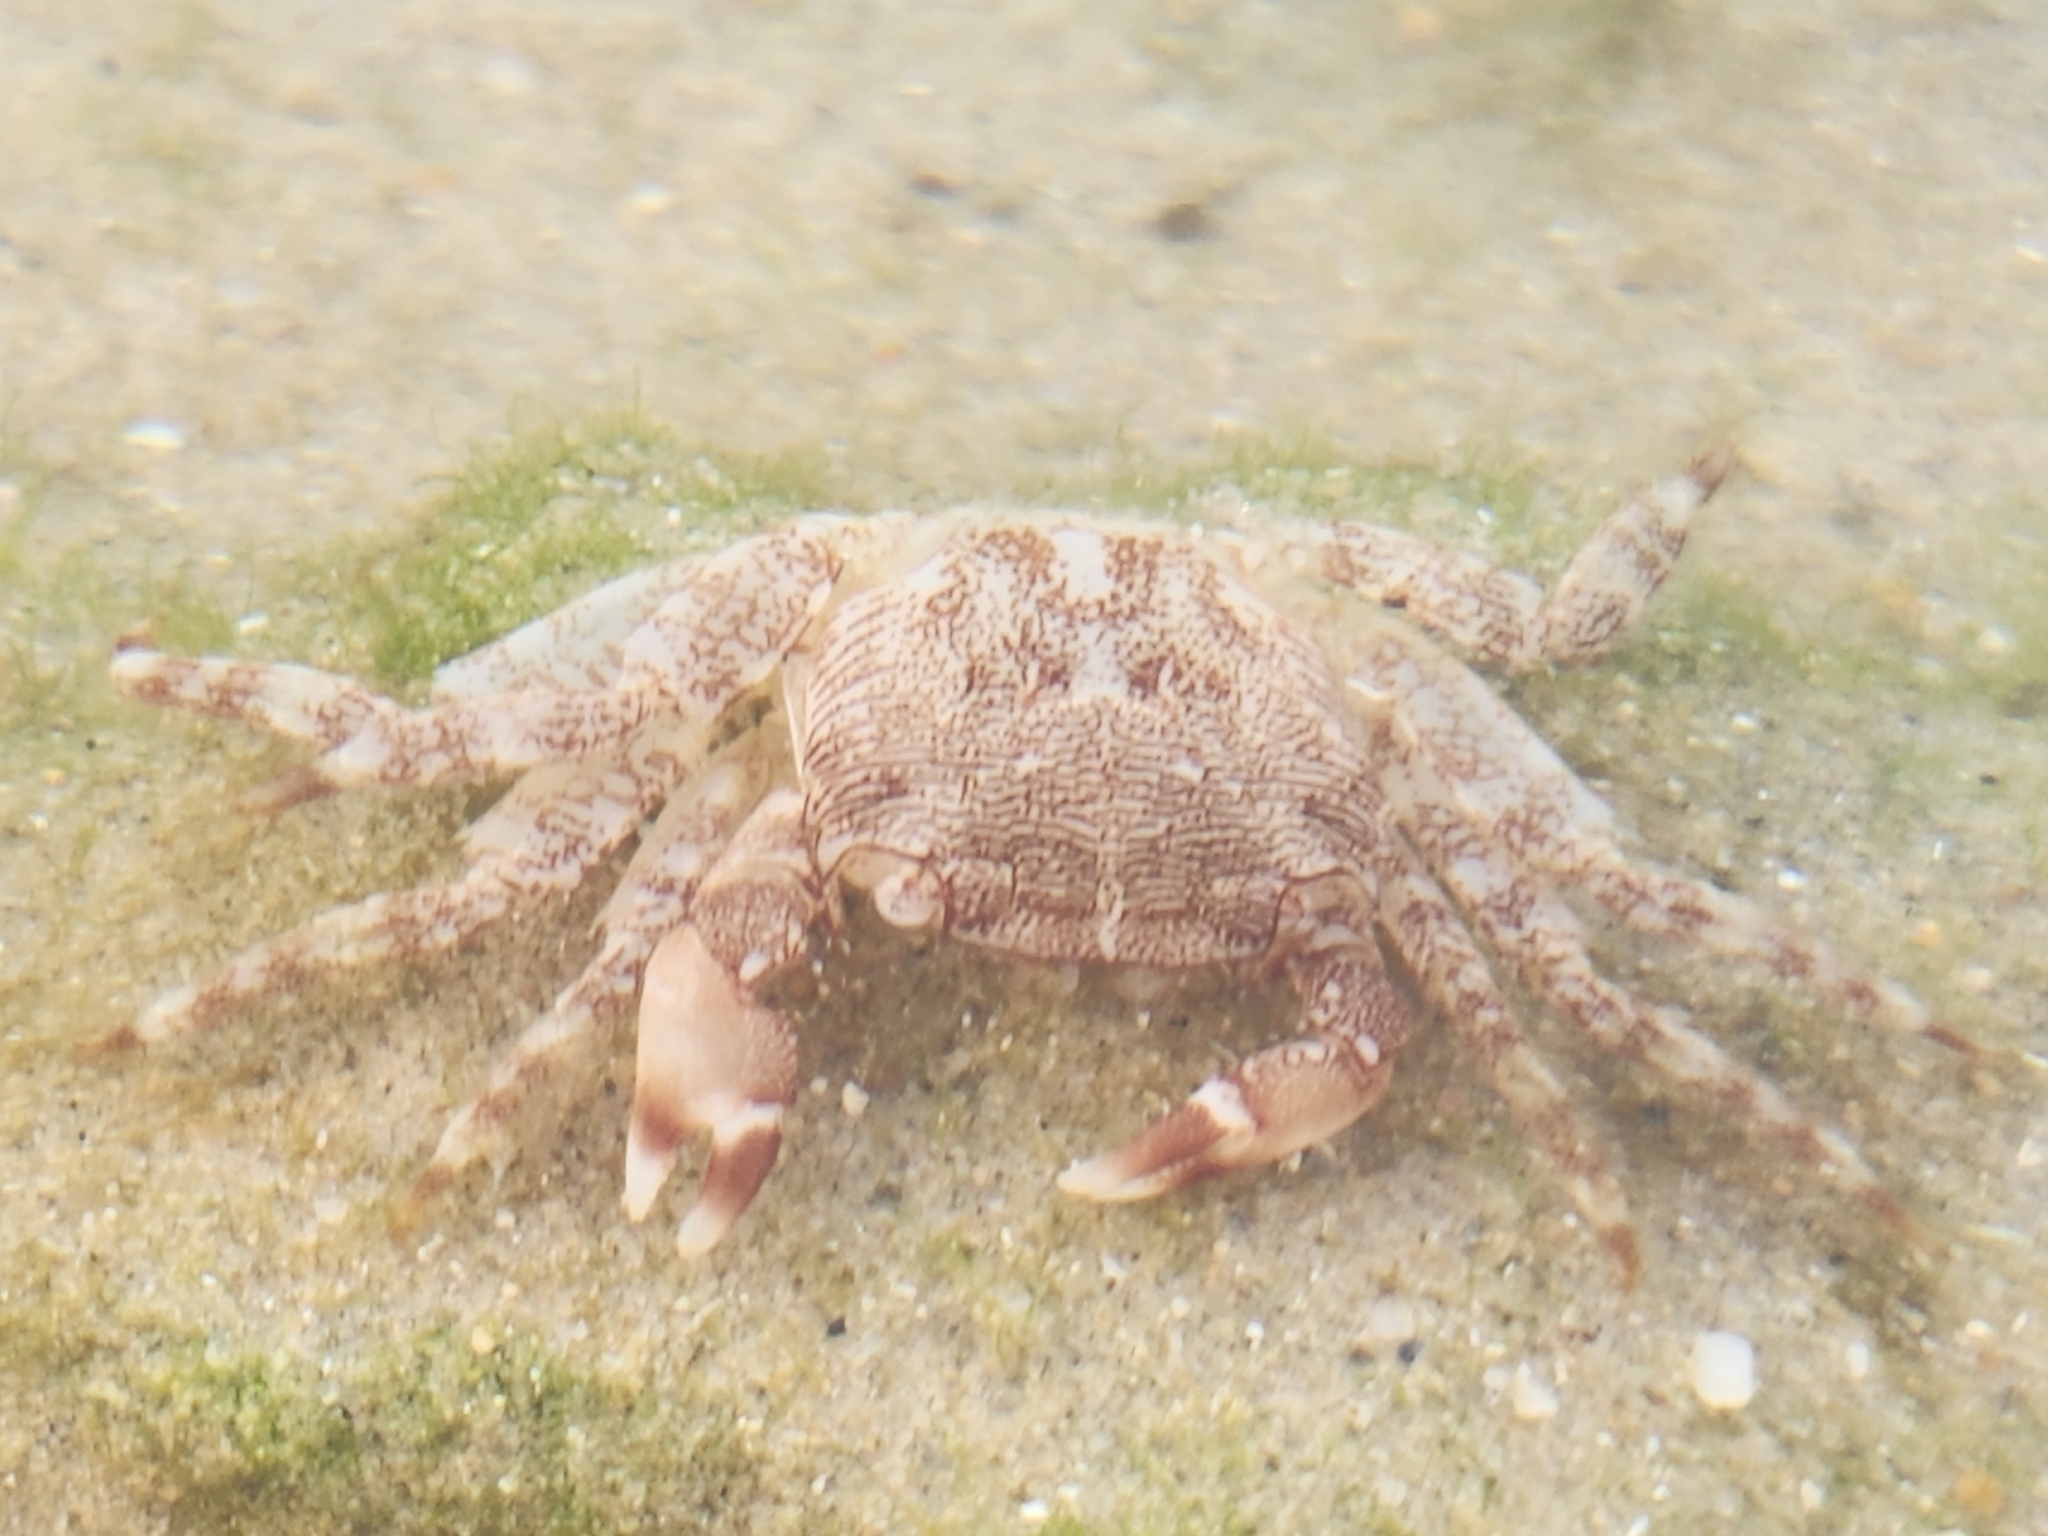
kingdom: Animalia
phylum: Arthropoda
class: Malacostraca
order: Decapoda
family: Grapsidae
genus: Pachygrapsus
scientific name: Pachygrapsus marmoratus
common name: Marbled rock crab
